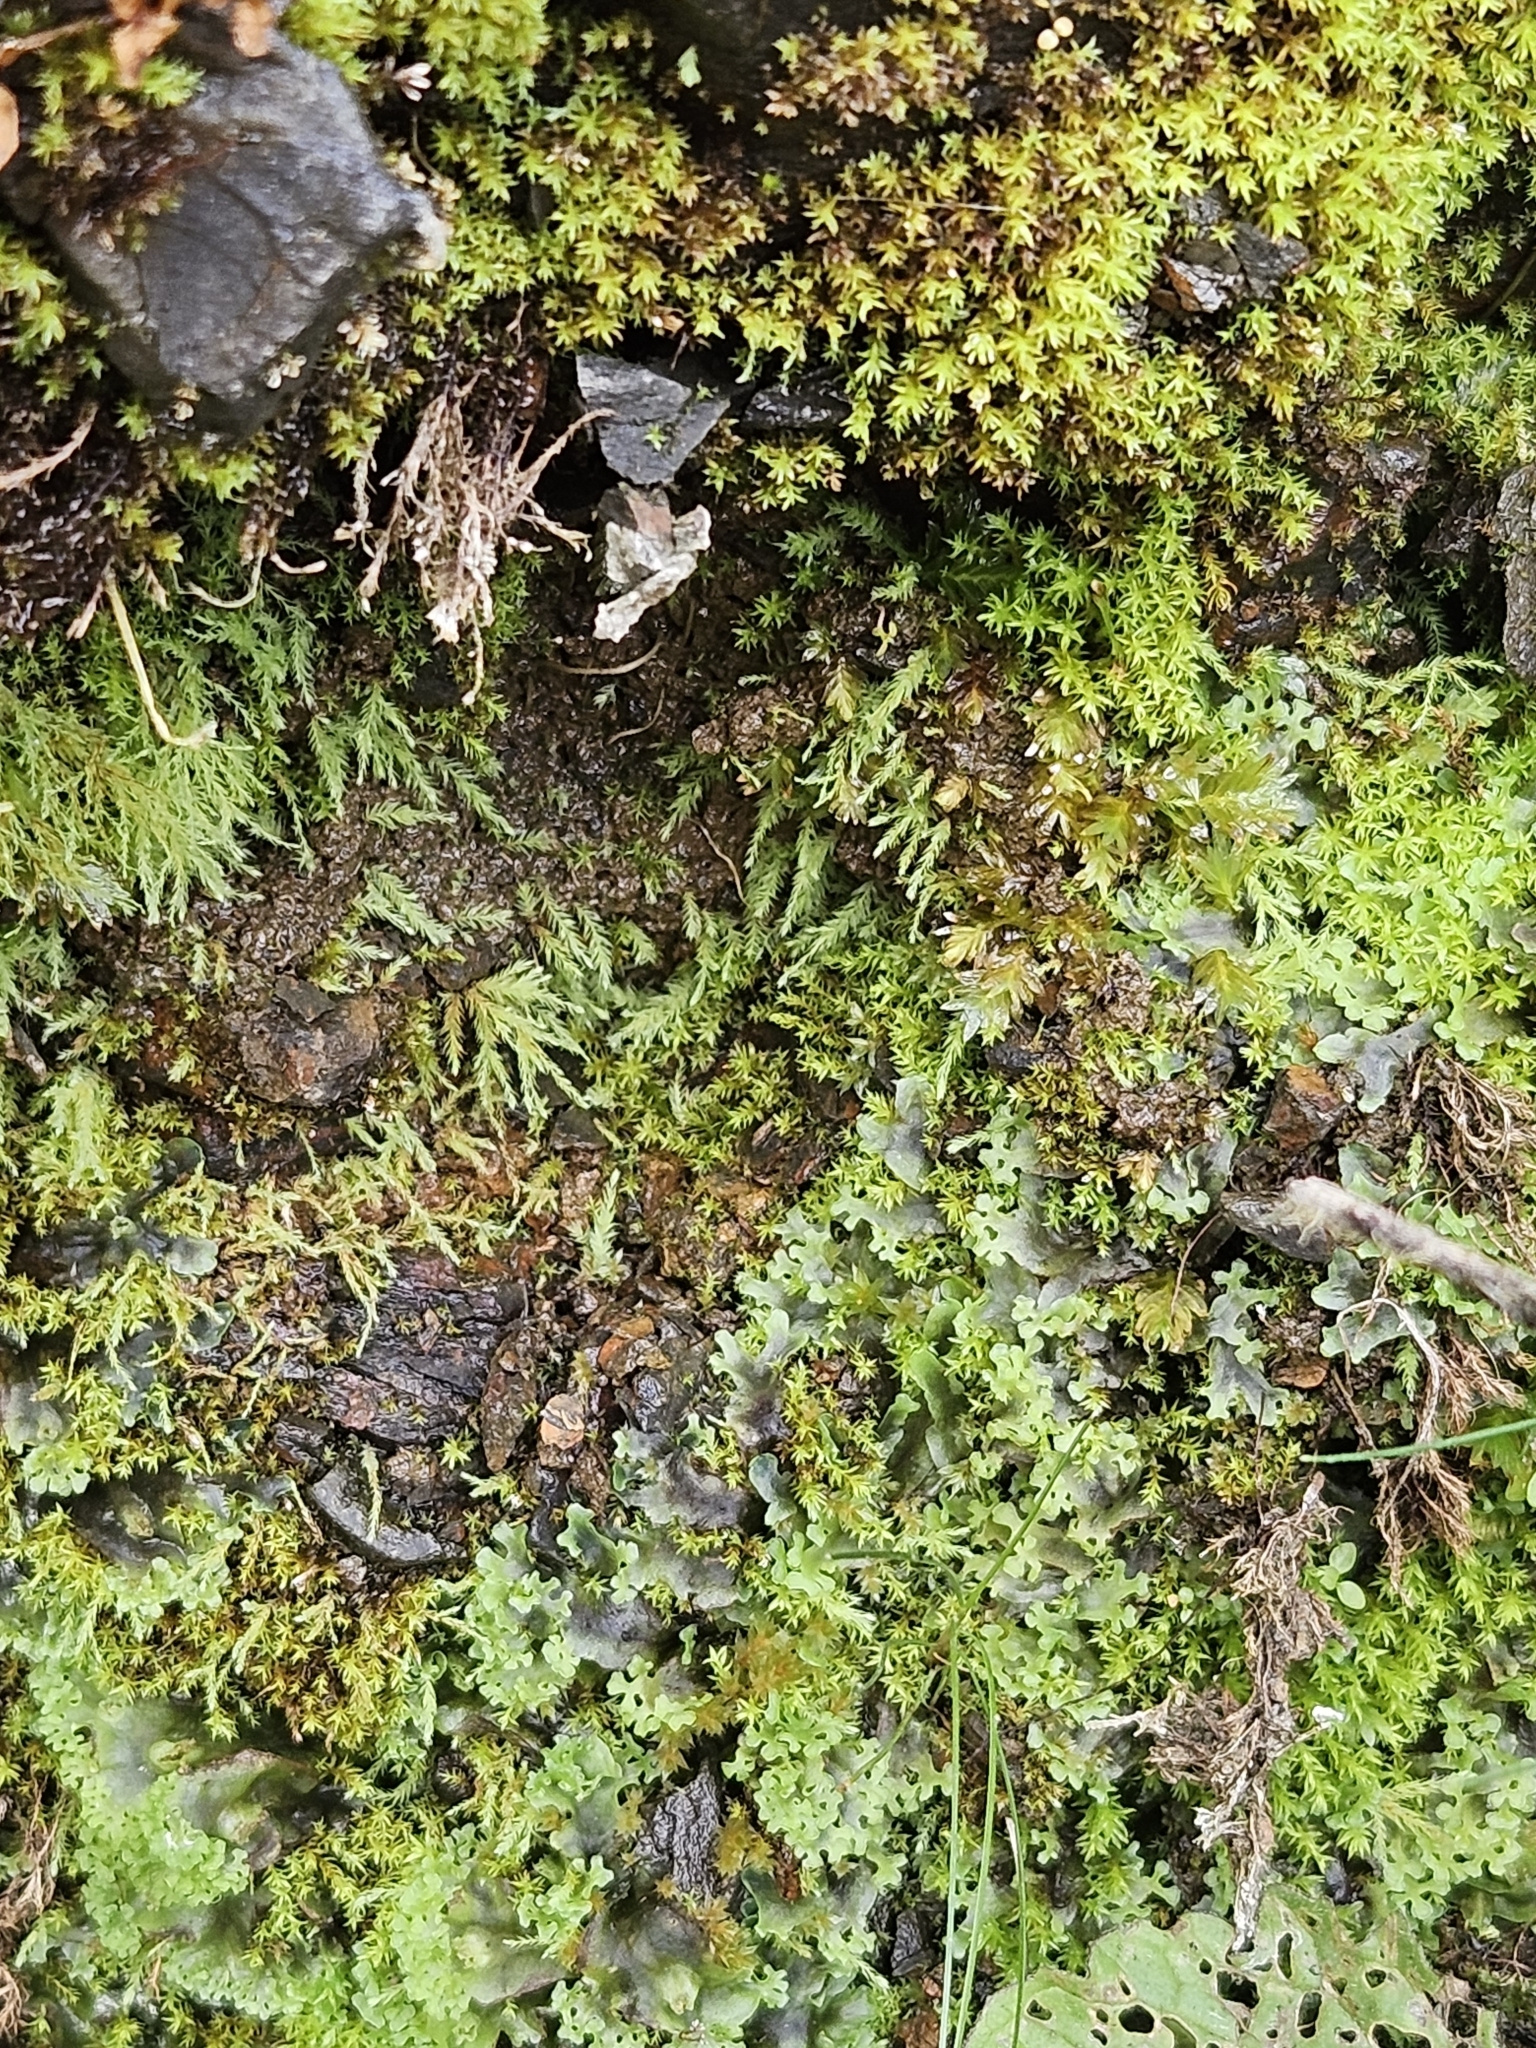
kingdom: Plantae
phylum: Marchantiophyta
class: Jungermanniopsida
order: Pelliales
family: Pelliaceae
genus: Apopellia
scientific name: Apopellia endiviifolia
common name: Endive pellia
